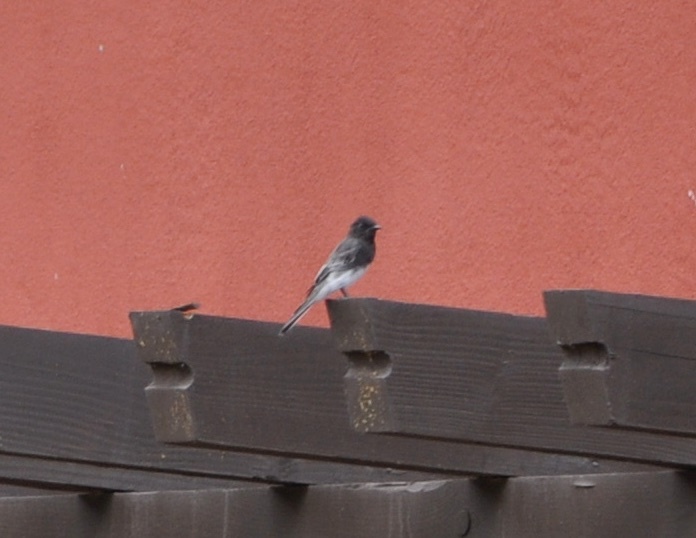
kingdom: Animalia
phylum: Chordata
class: Aves
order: Passeriformes
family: Tyrannidae
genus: Sayornis
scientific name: Sayornis nigricans
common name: Black phoebe
